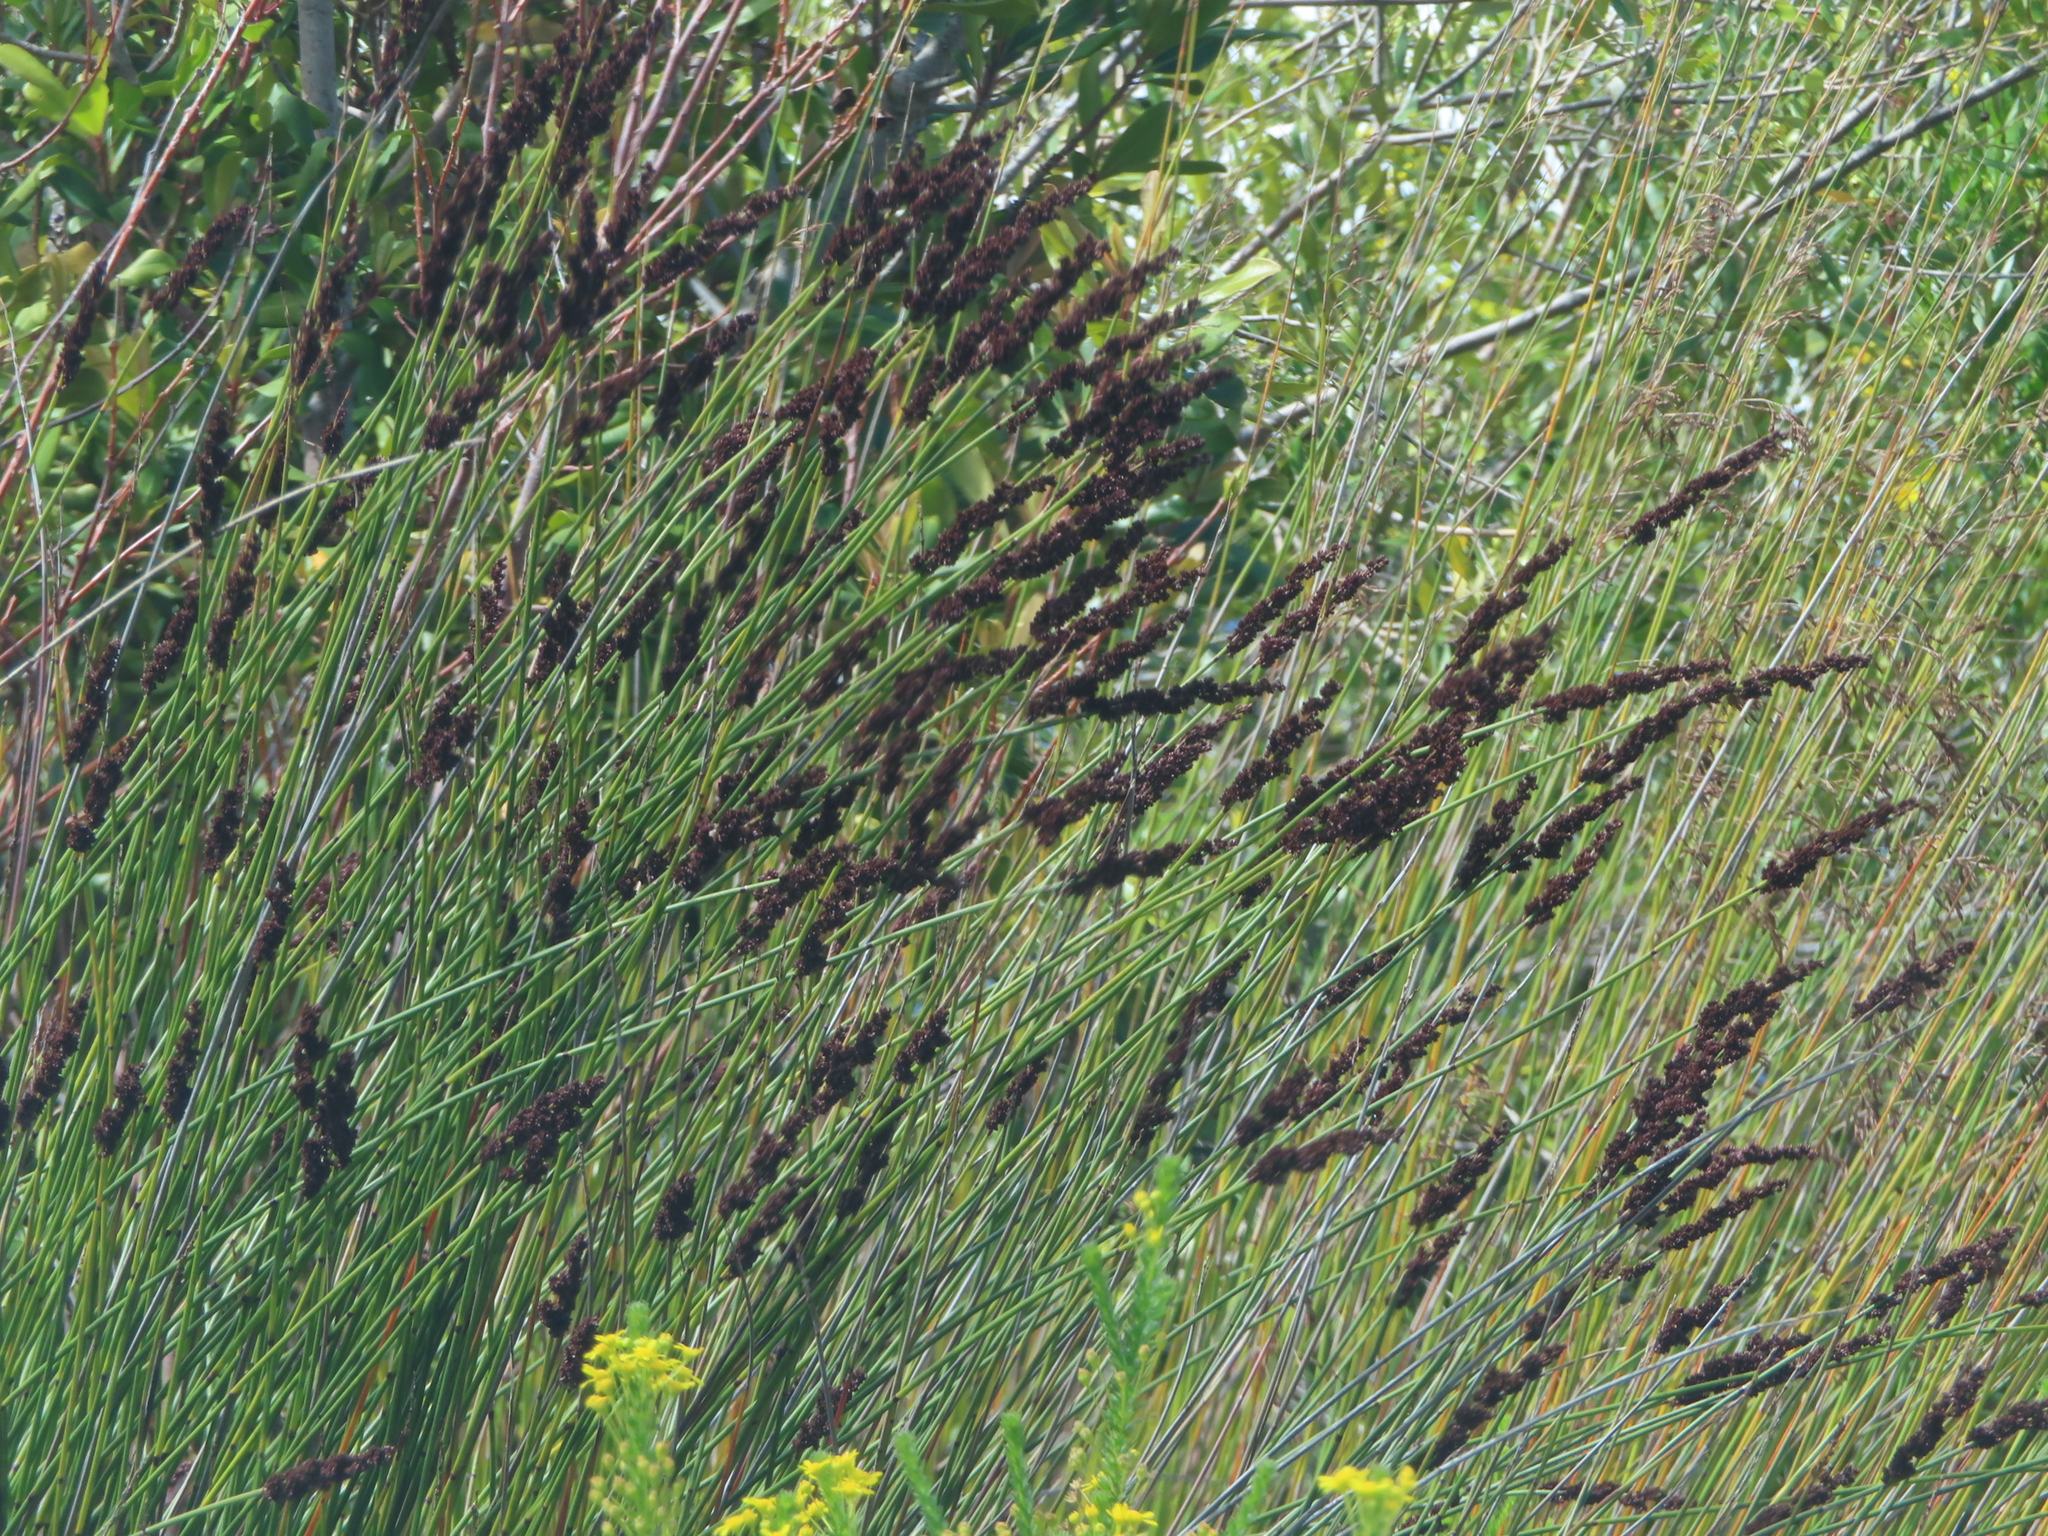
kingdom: Plantae
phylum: Tracheophyta
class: Liliopsida
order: Poales
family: Restionaceae
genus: Elegia
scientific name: Elegia tectorum
